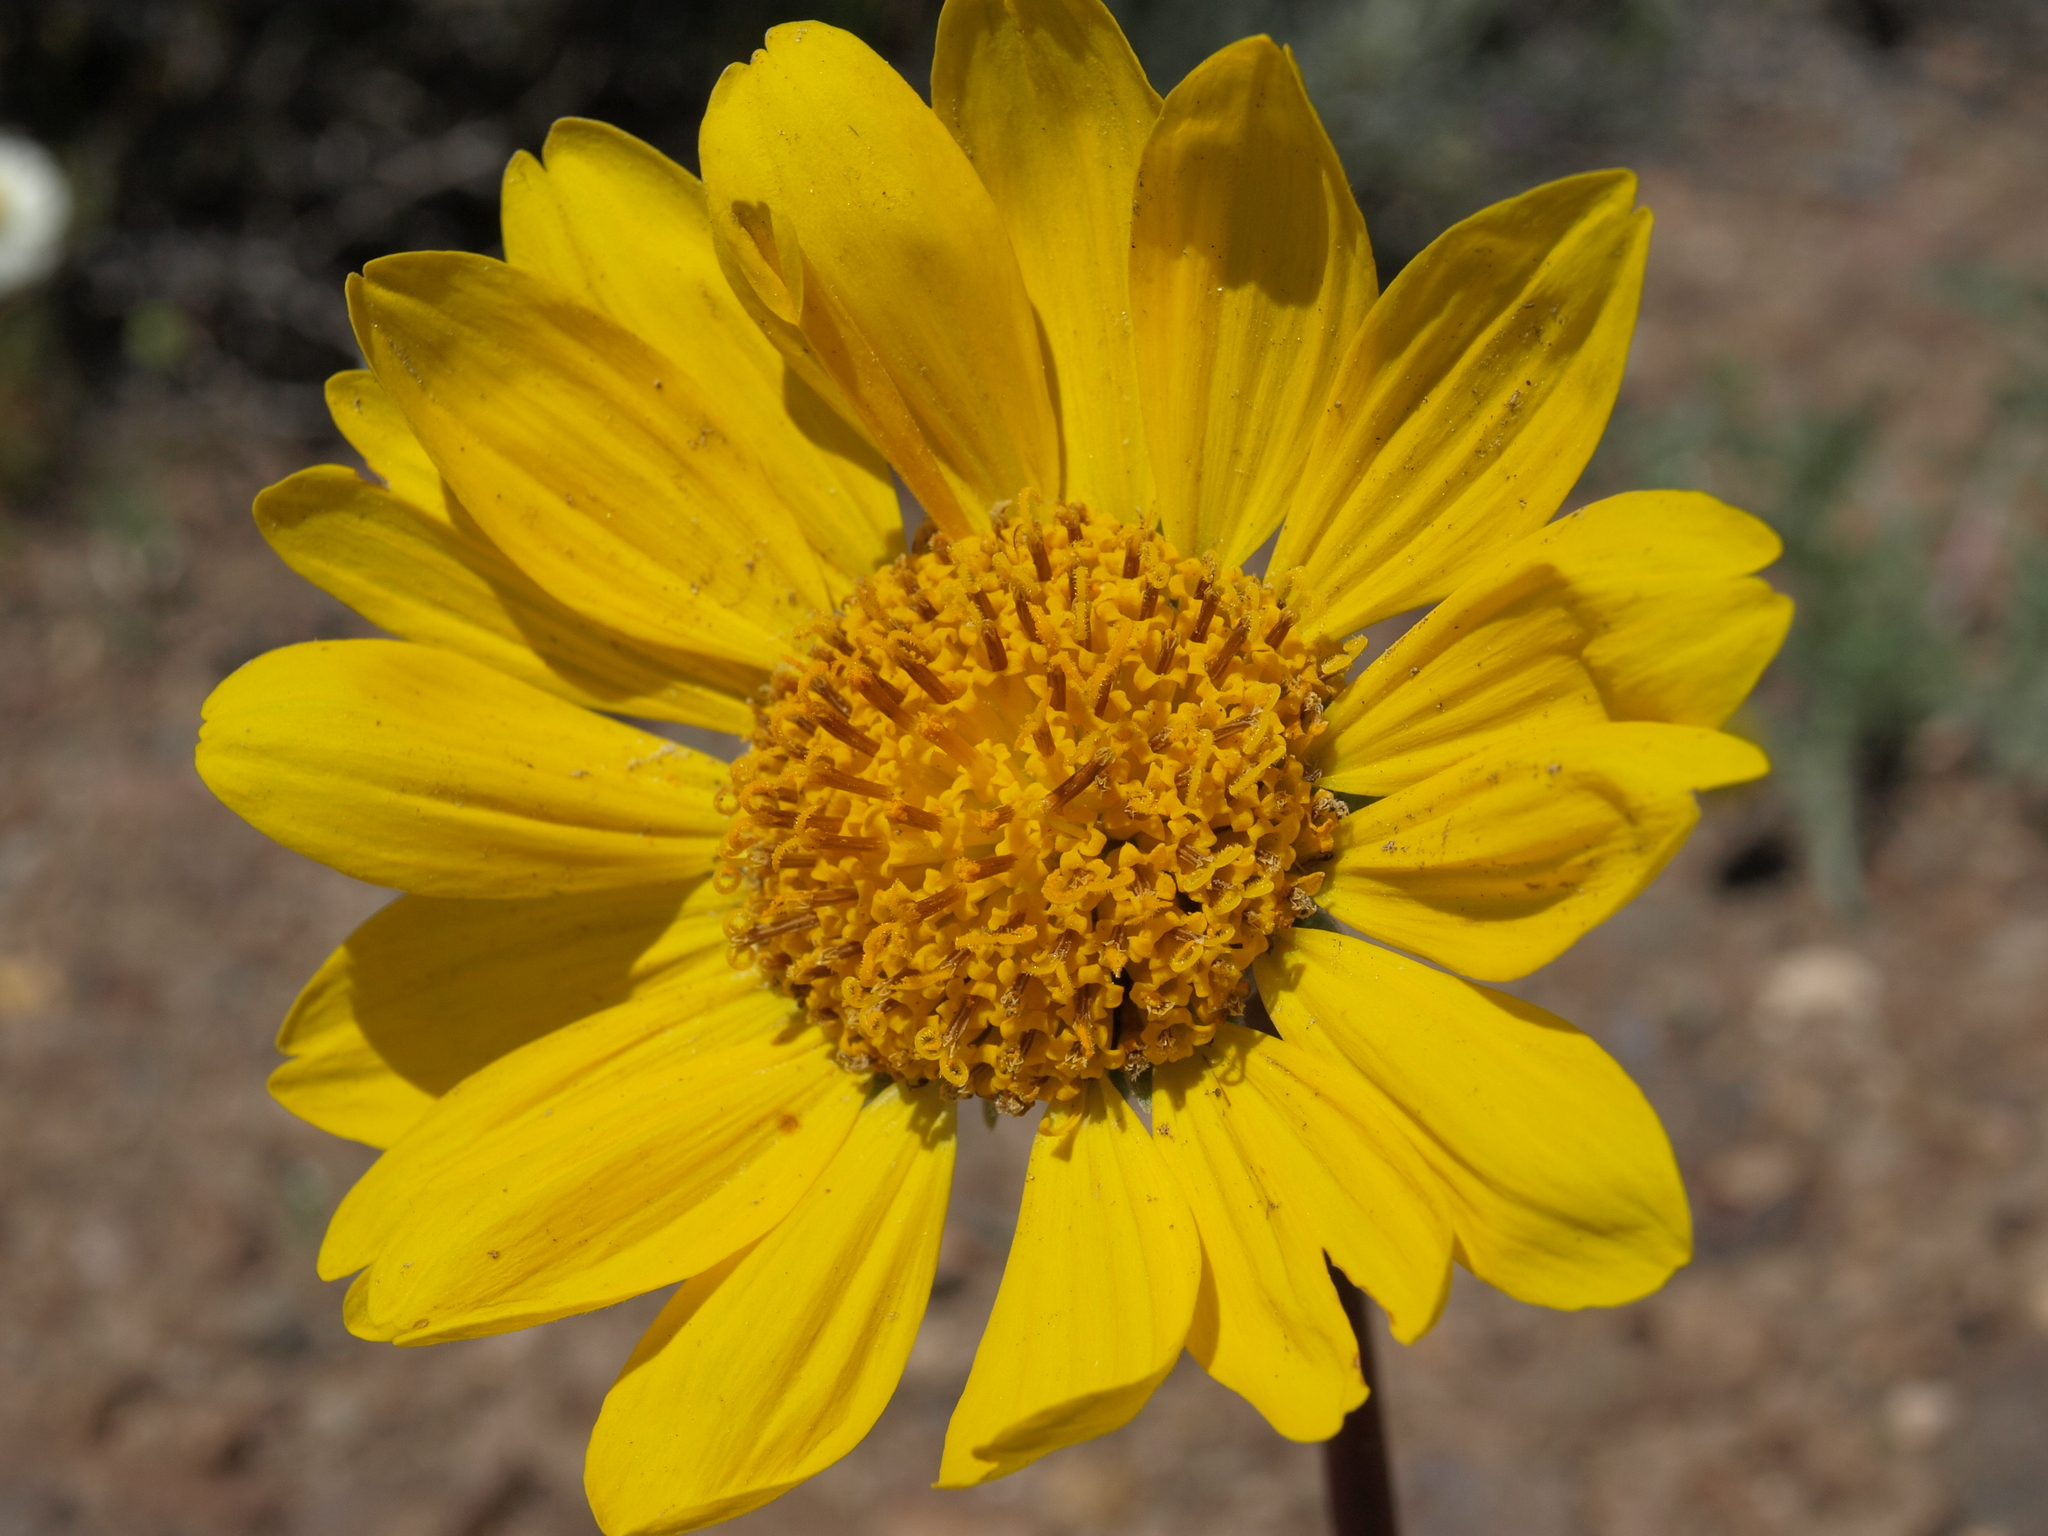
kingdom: Plantae
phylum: Tracheophyta
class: Magnoliopsida
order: Asterales
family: Asteraceae
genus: Balsamorhiza
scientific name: Balsamorhiza hookeri
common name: Hooker's balsamroot
